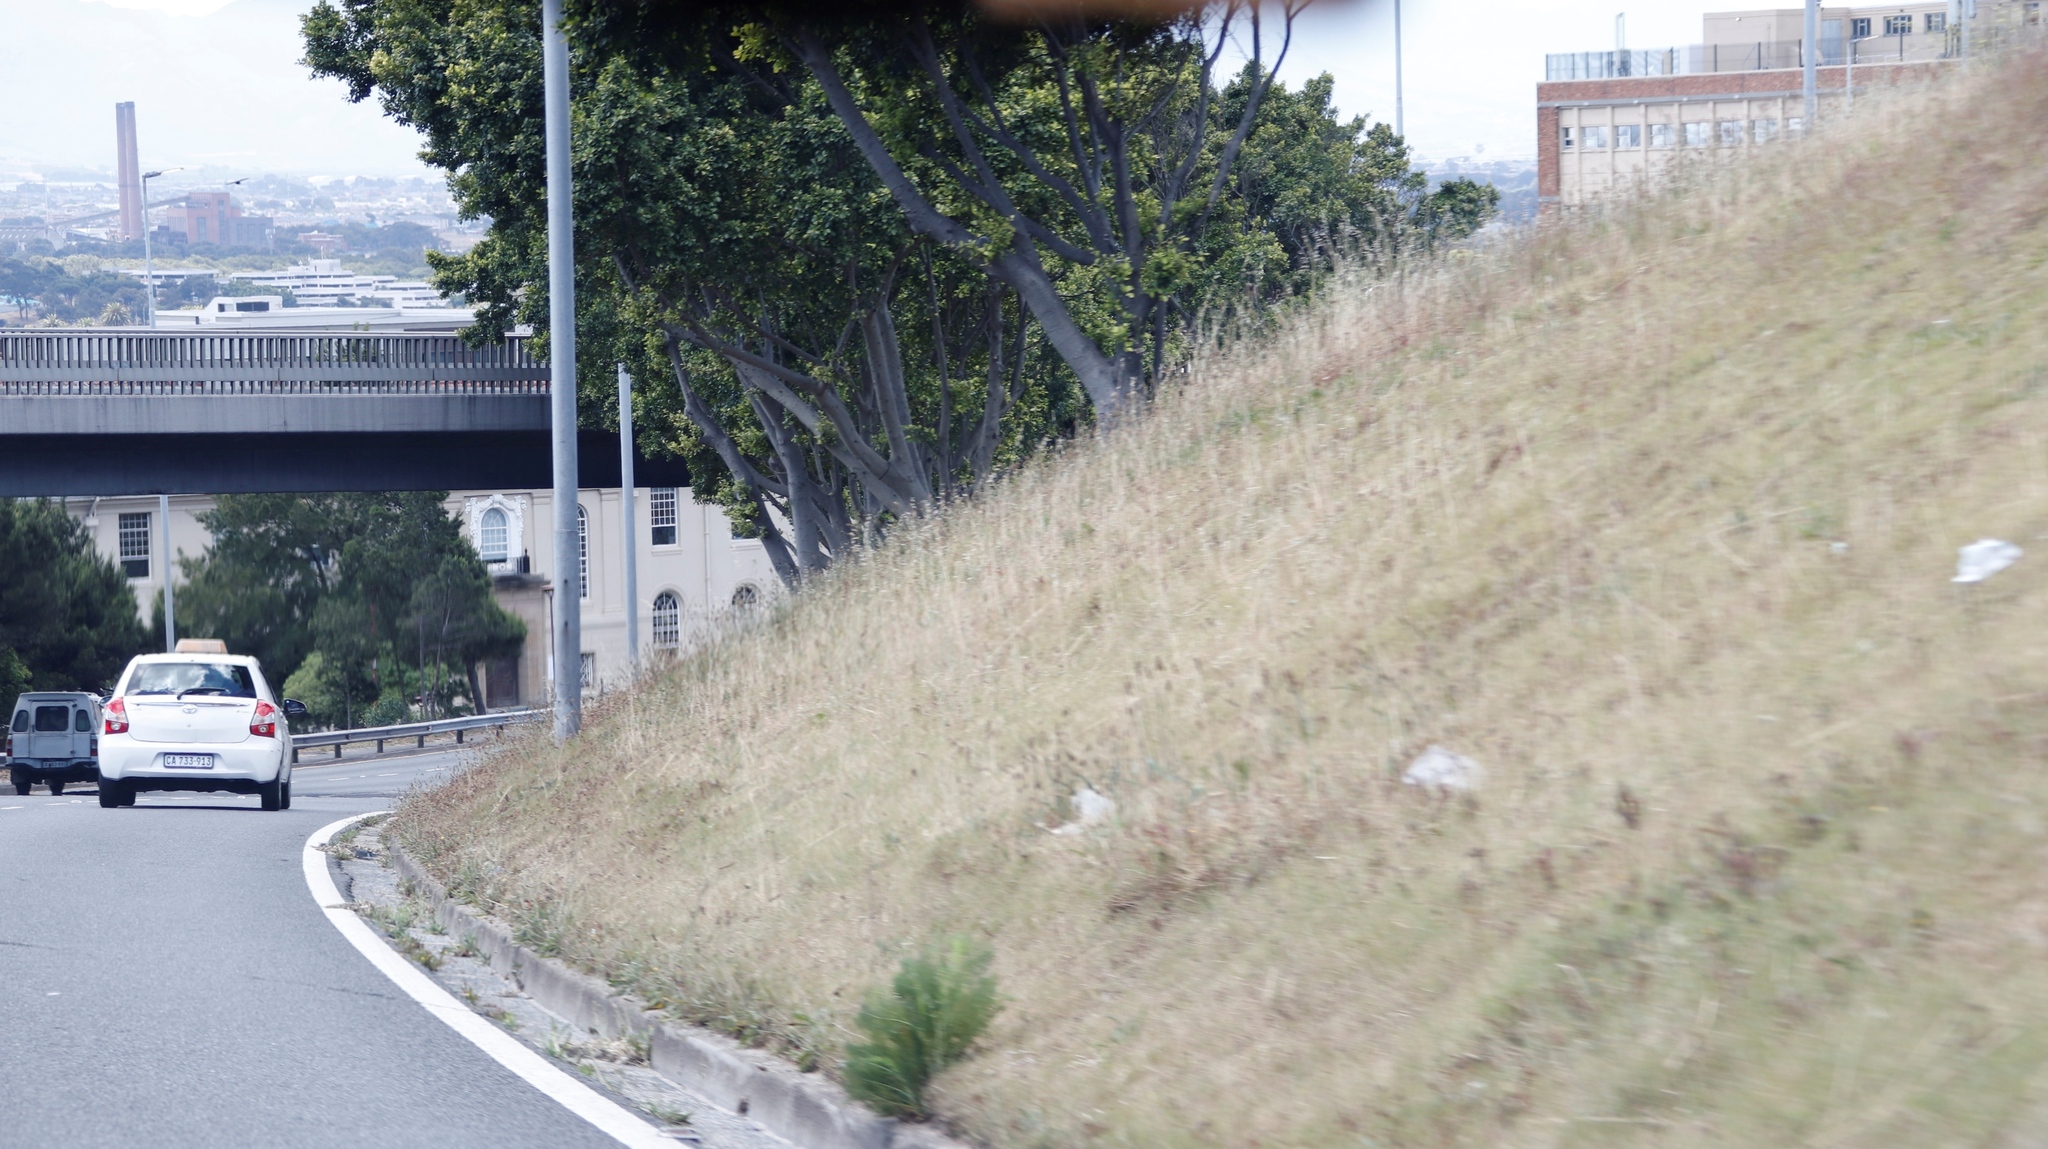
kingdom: Plantae
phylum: Tracheophyta
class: Liliopsida
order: Poales
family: Poaceae
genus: Avena
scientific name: Avena fatua
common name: Wild oat
